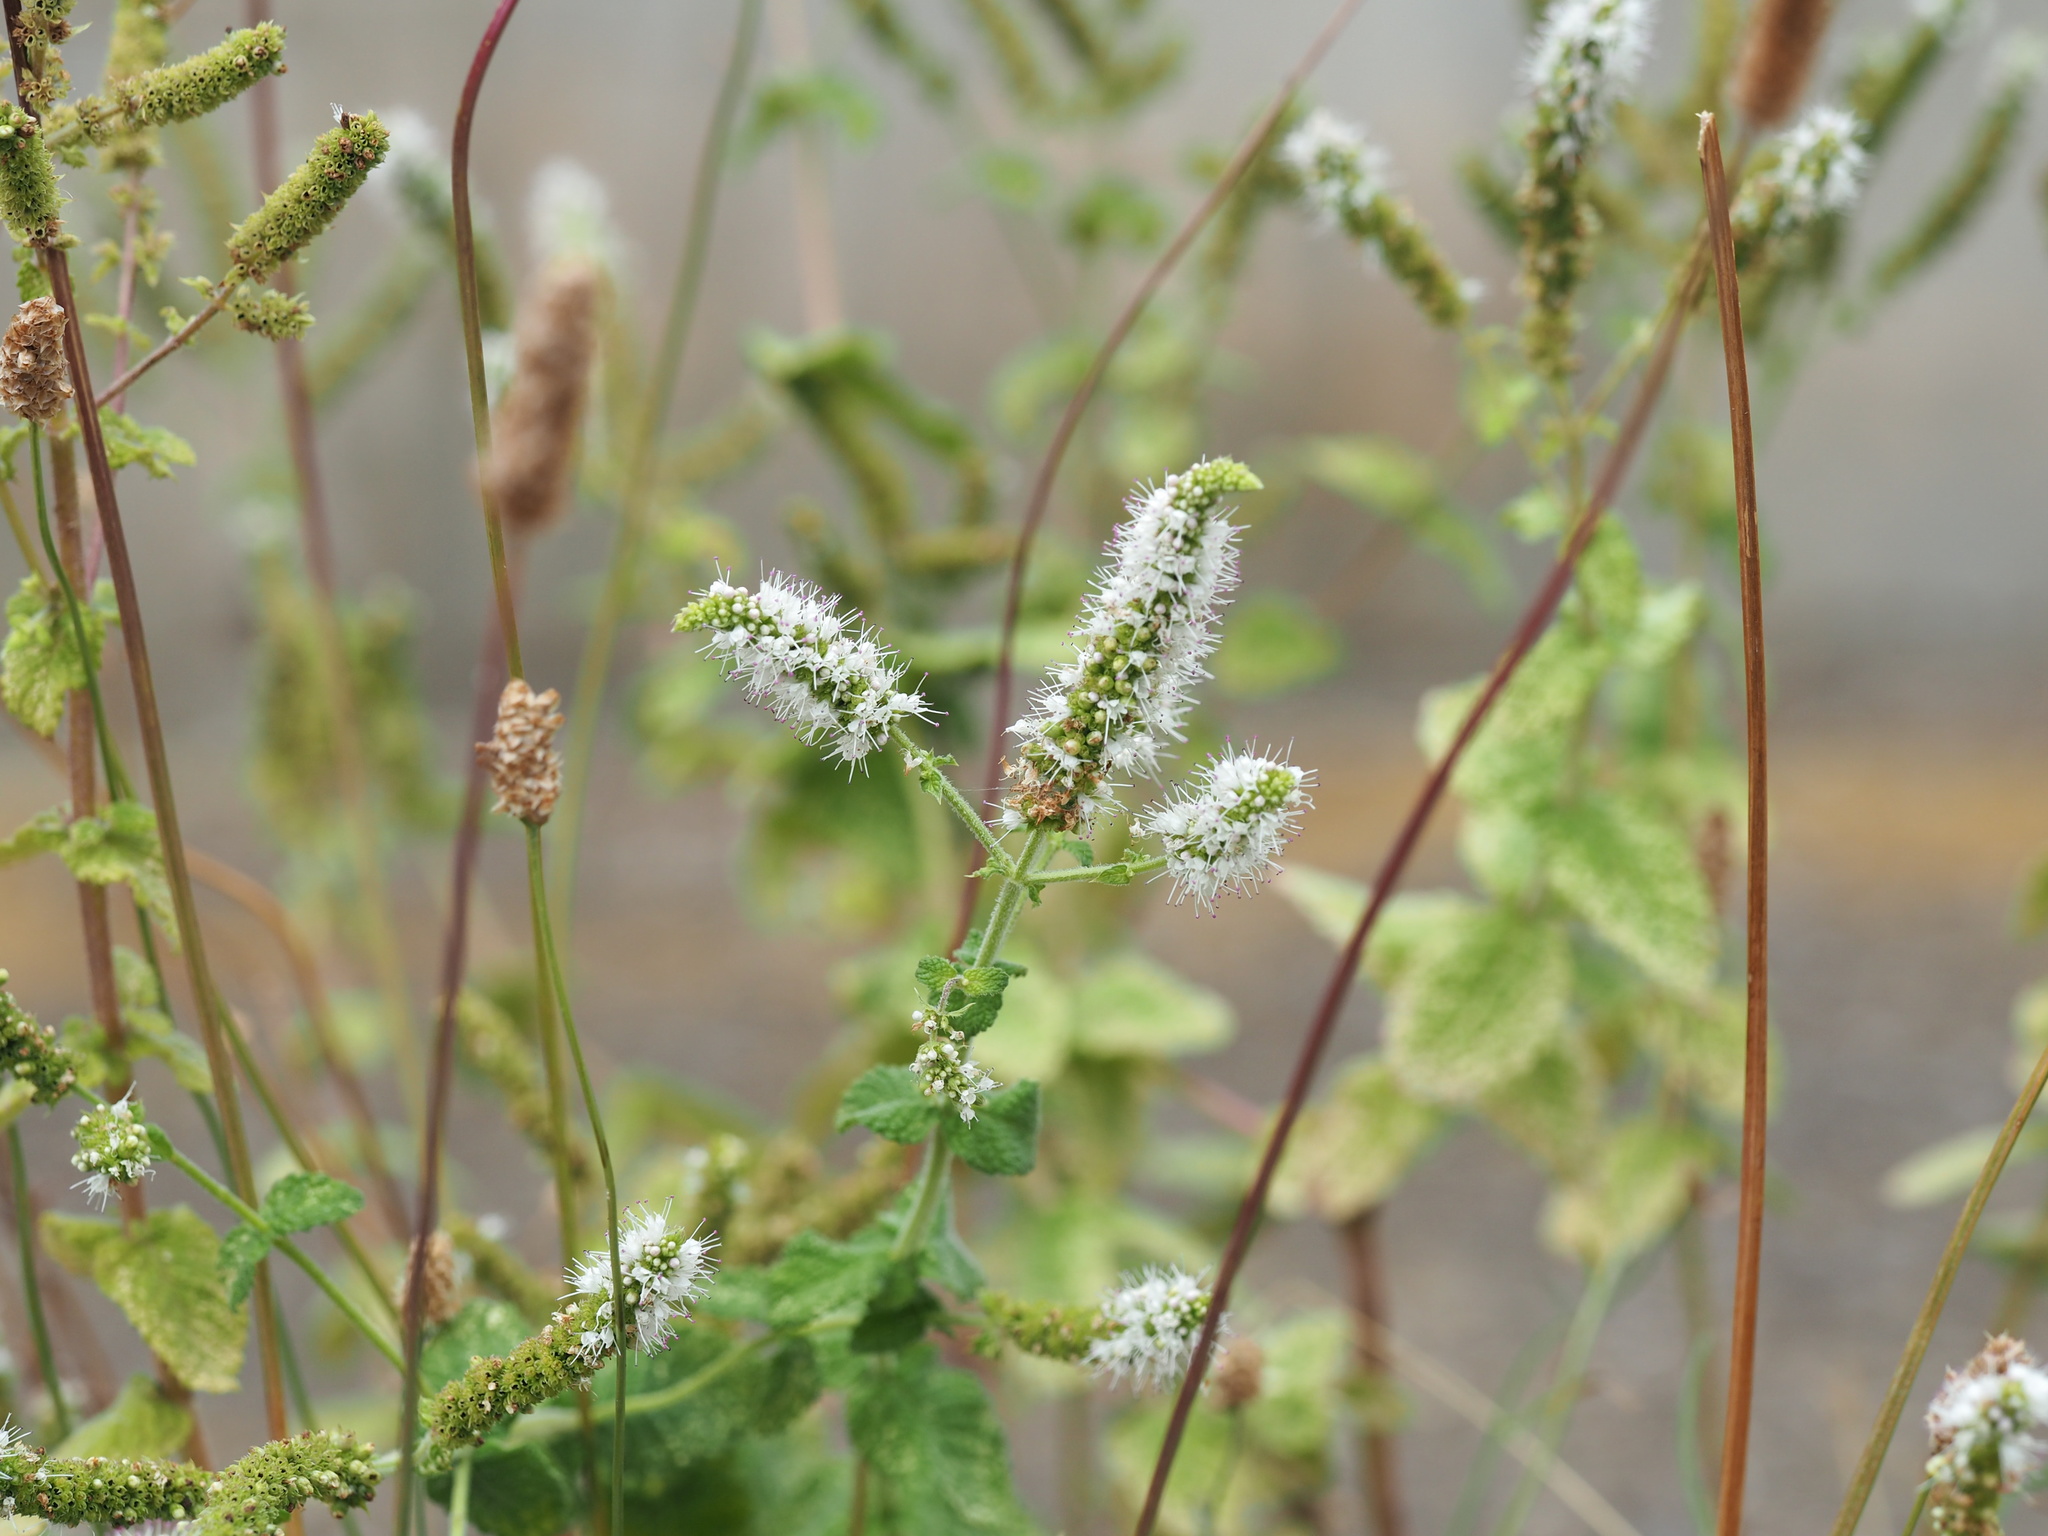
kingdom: Plantae
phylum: Tracheophyta
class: Magnoliopsida
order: Lamiales
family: Lamiaceae
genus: Mentha
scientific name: Mentha suaveolens
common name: Apple mint
